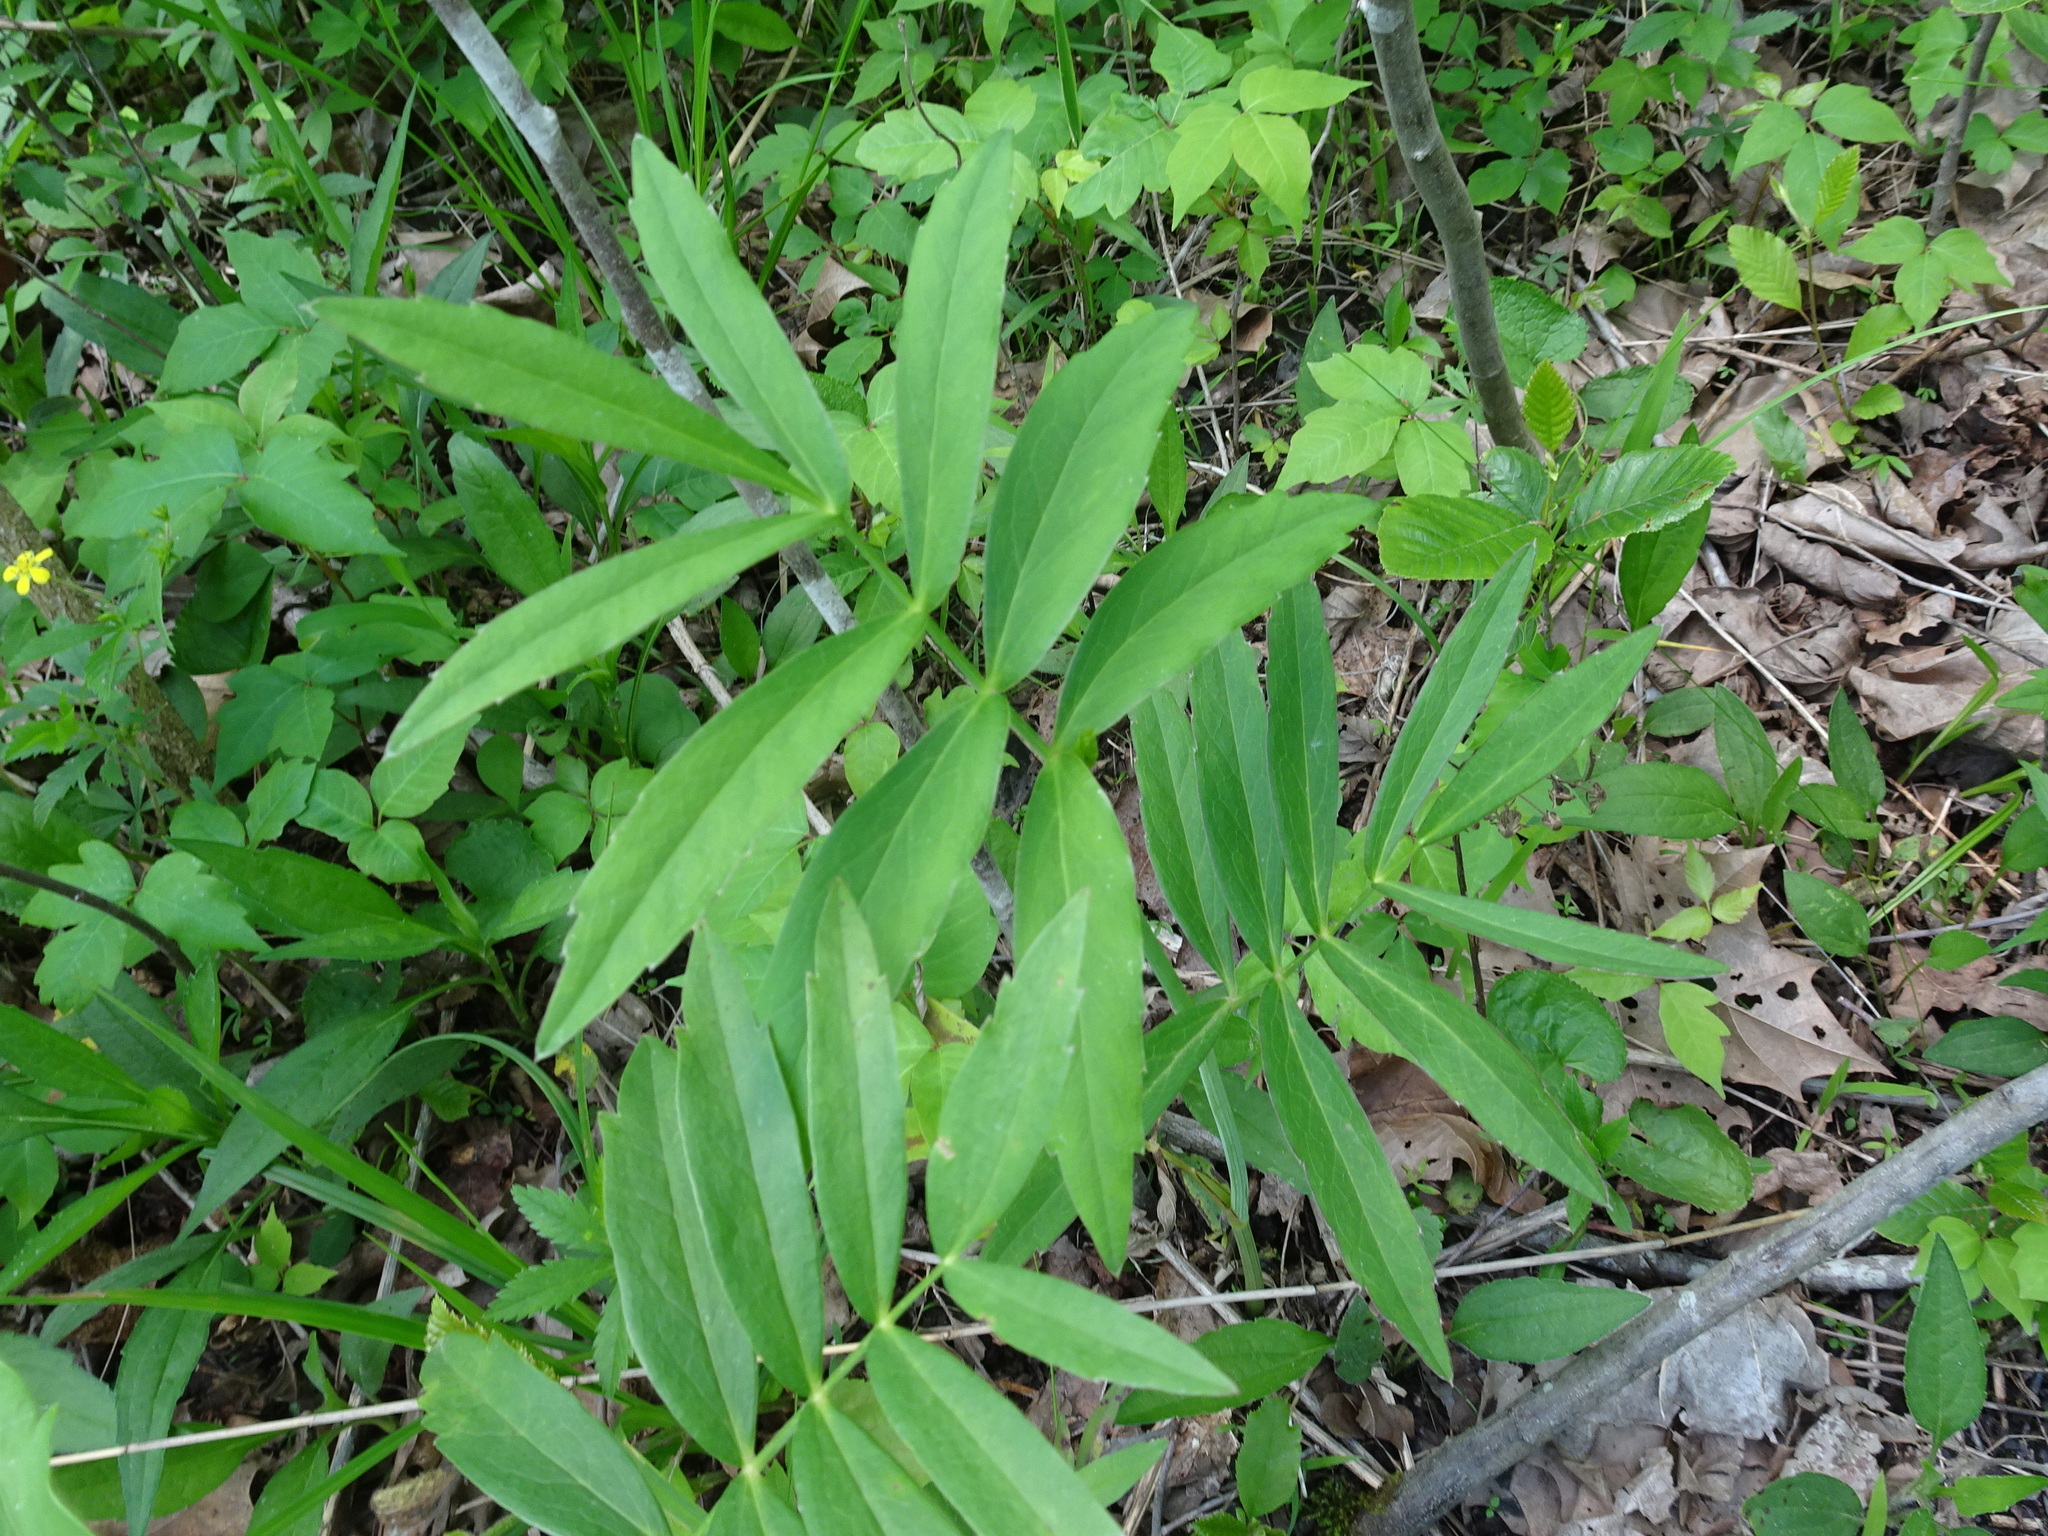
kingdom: Plantae
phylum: Tracheophyta
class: Magnoliopsida
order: Apiales
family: Apiaceae
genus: Oxypolis
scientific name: Oxypolis rigidior
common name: Cowbane
